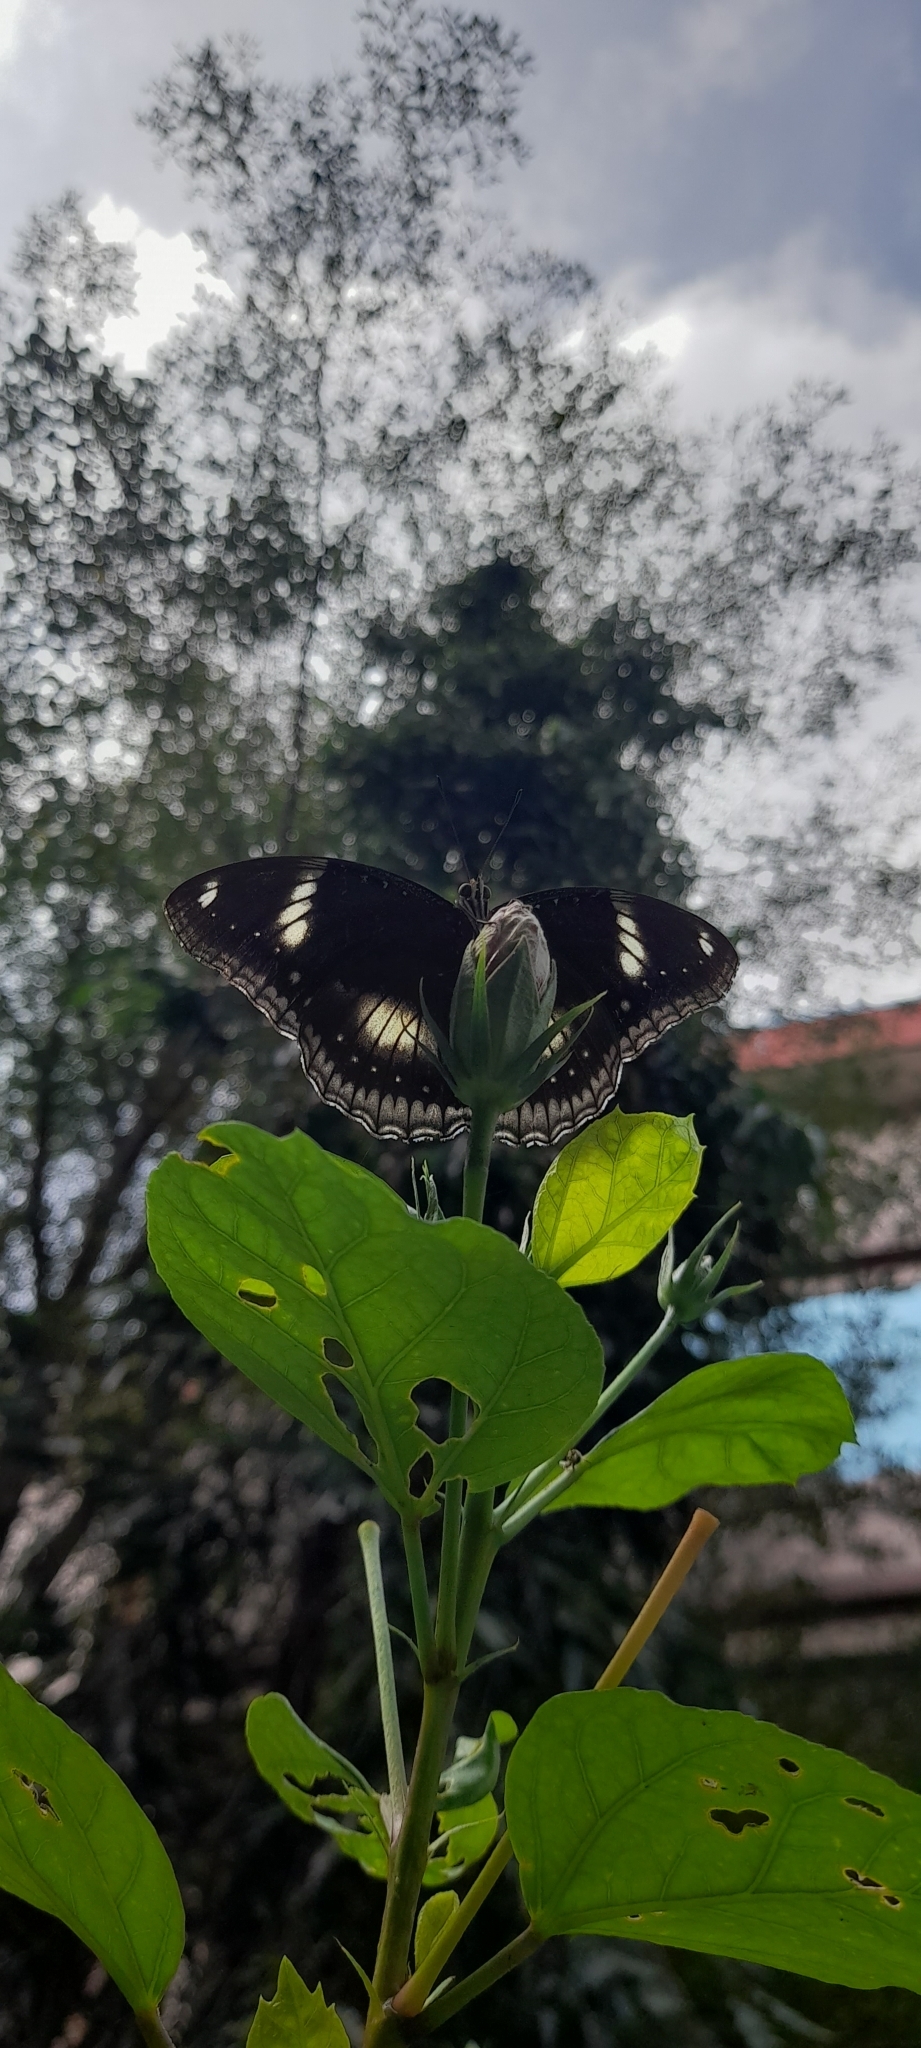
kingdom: Animalia
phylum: Arthropoda
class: Insecta
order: Lepidoptera
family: Nymphalidae
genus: Hypolimnas
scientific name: Hypolimnas bolina
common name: Great eggfly
